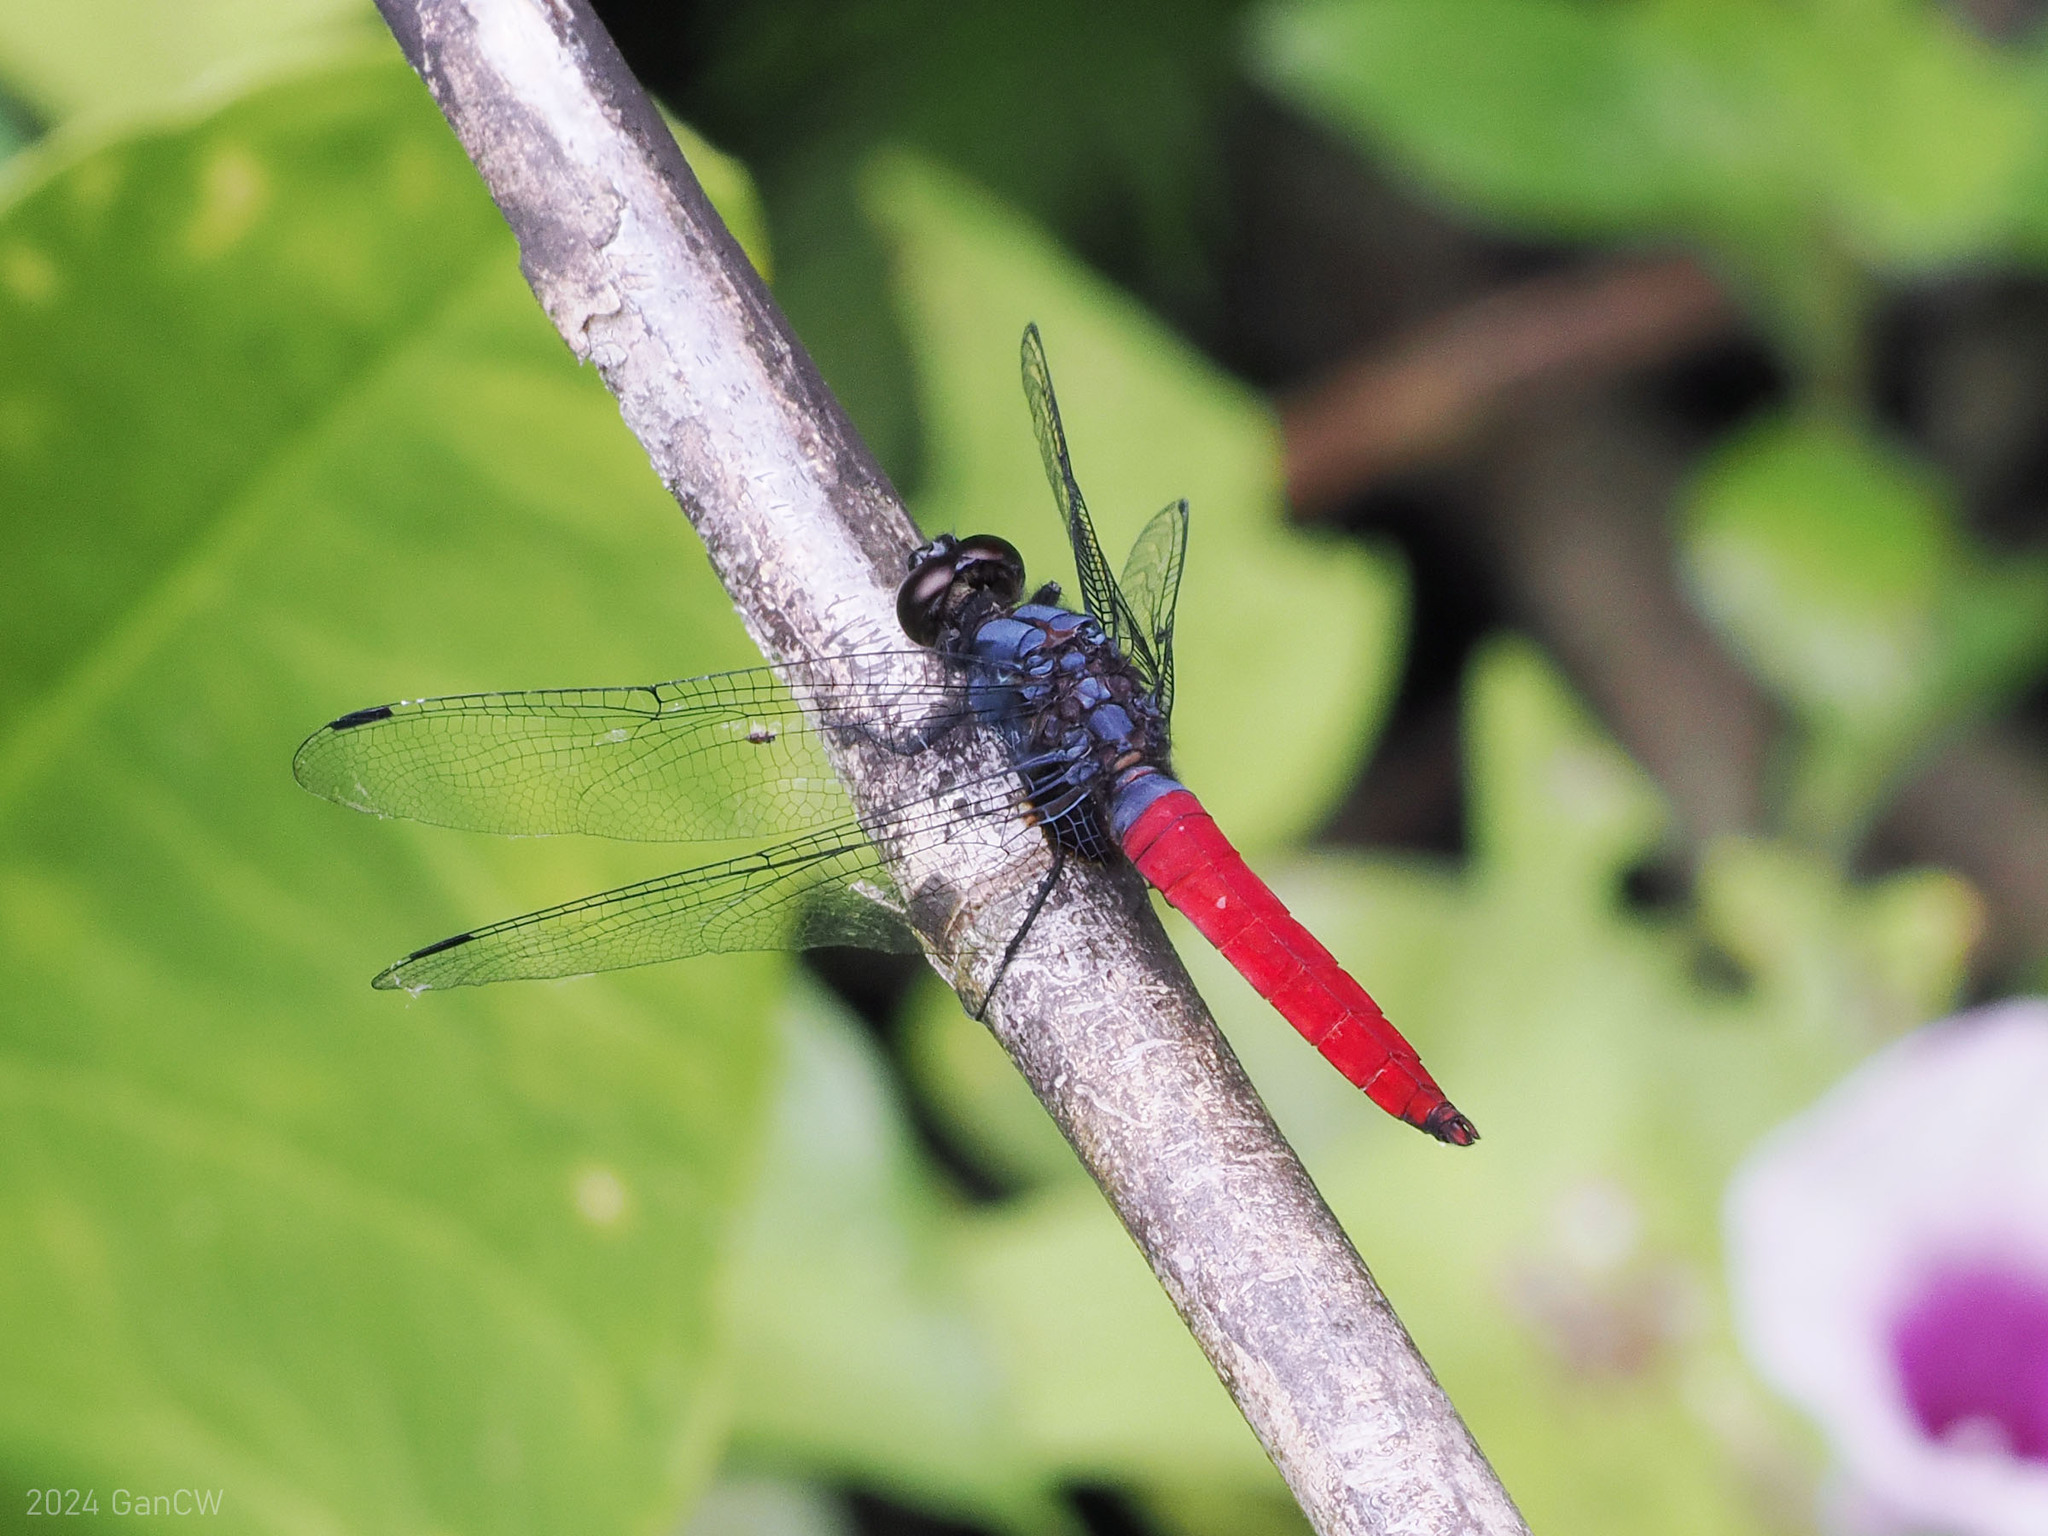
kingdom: Animalia
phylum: Arthropoda
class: Insecta
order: Odonata
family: Libellulidae
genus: Orthetrum
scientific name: Orthetrum pruinosum
